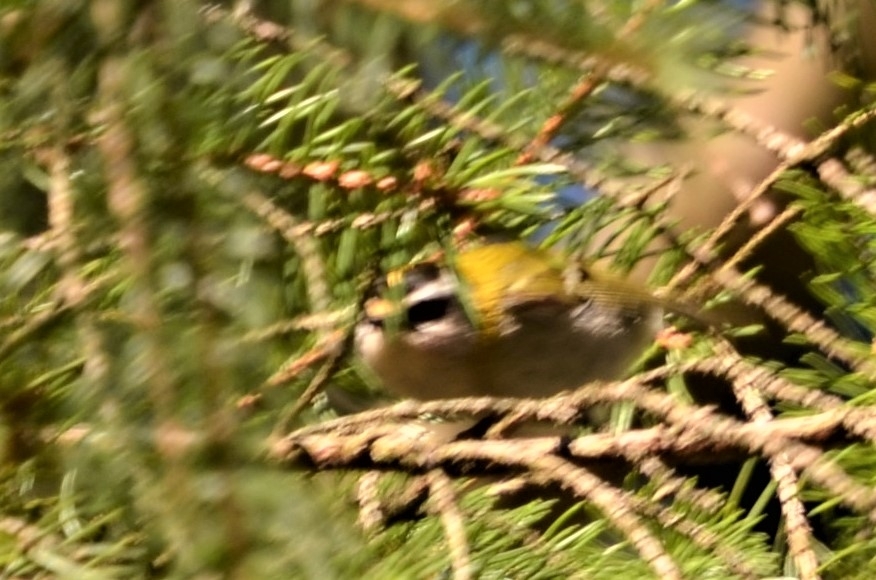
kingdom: Animalia
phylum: Chordata
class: Aves
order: Passeriformes
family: Regulidae
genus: Regulus
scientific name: Regulus ignicapilla
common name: Firecrest
